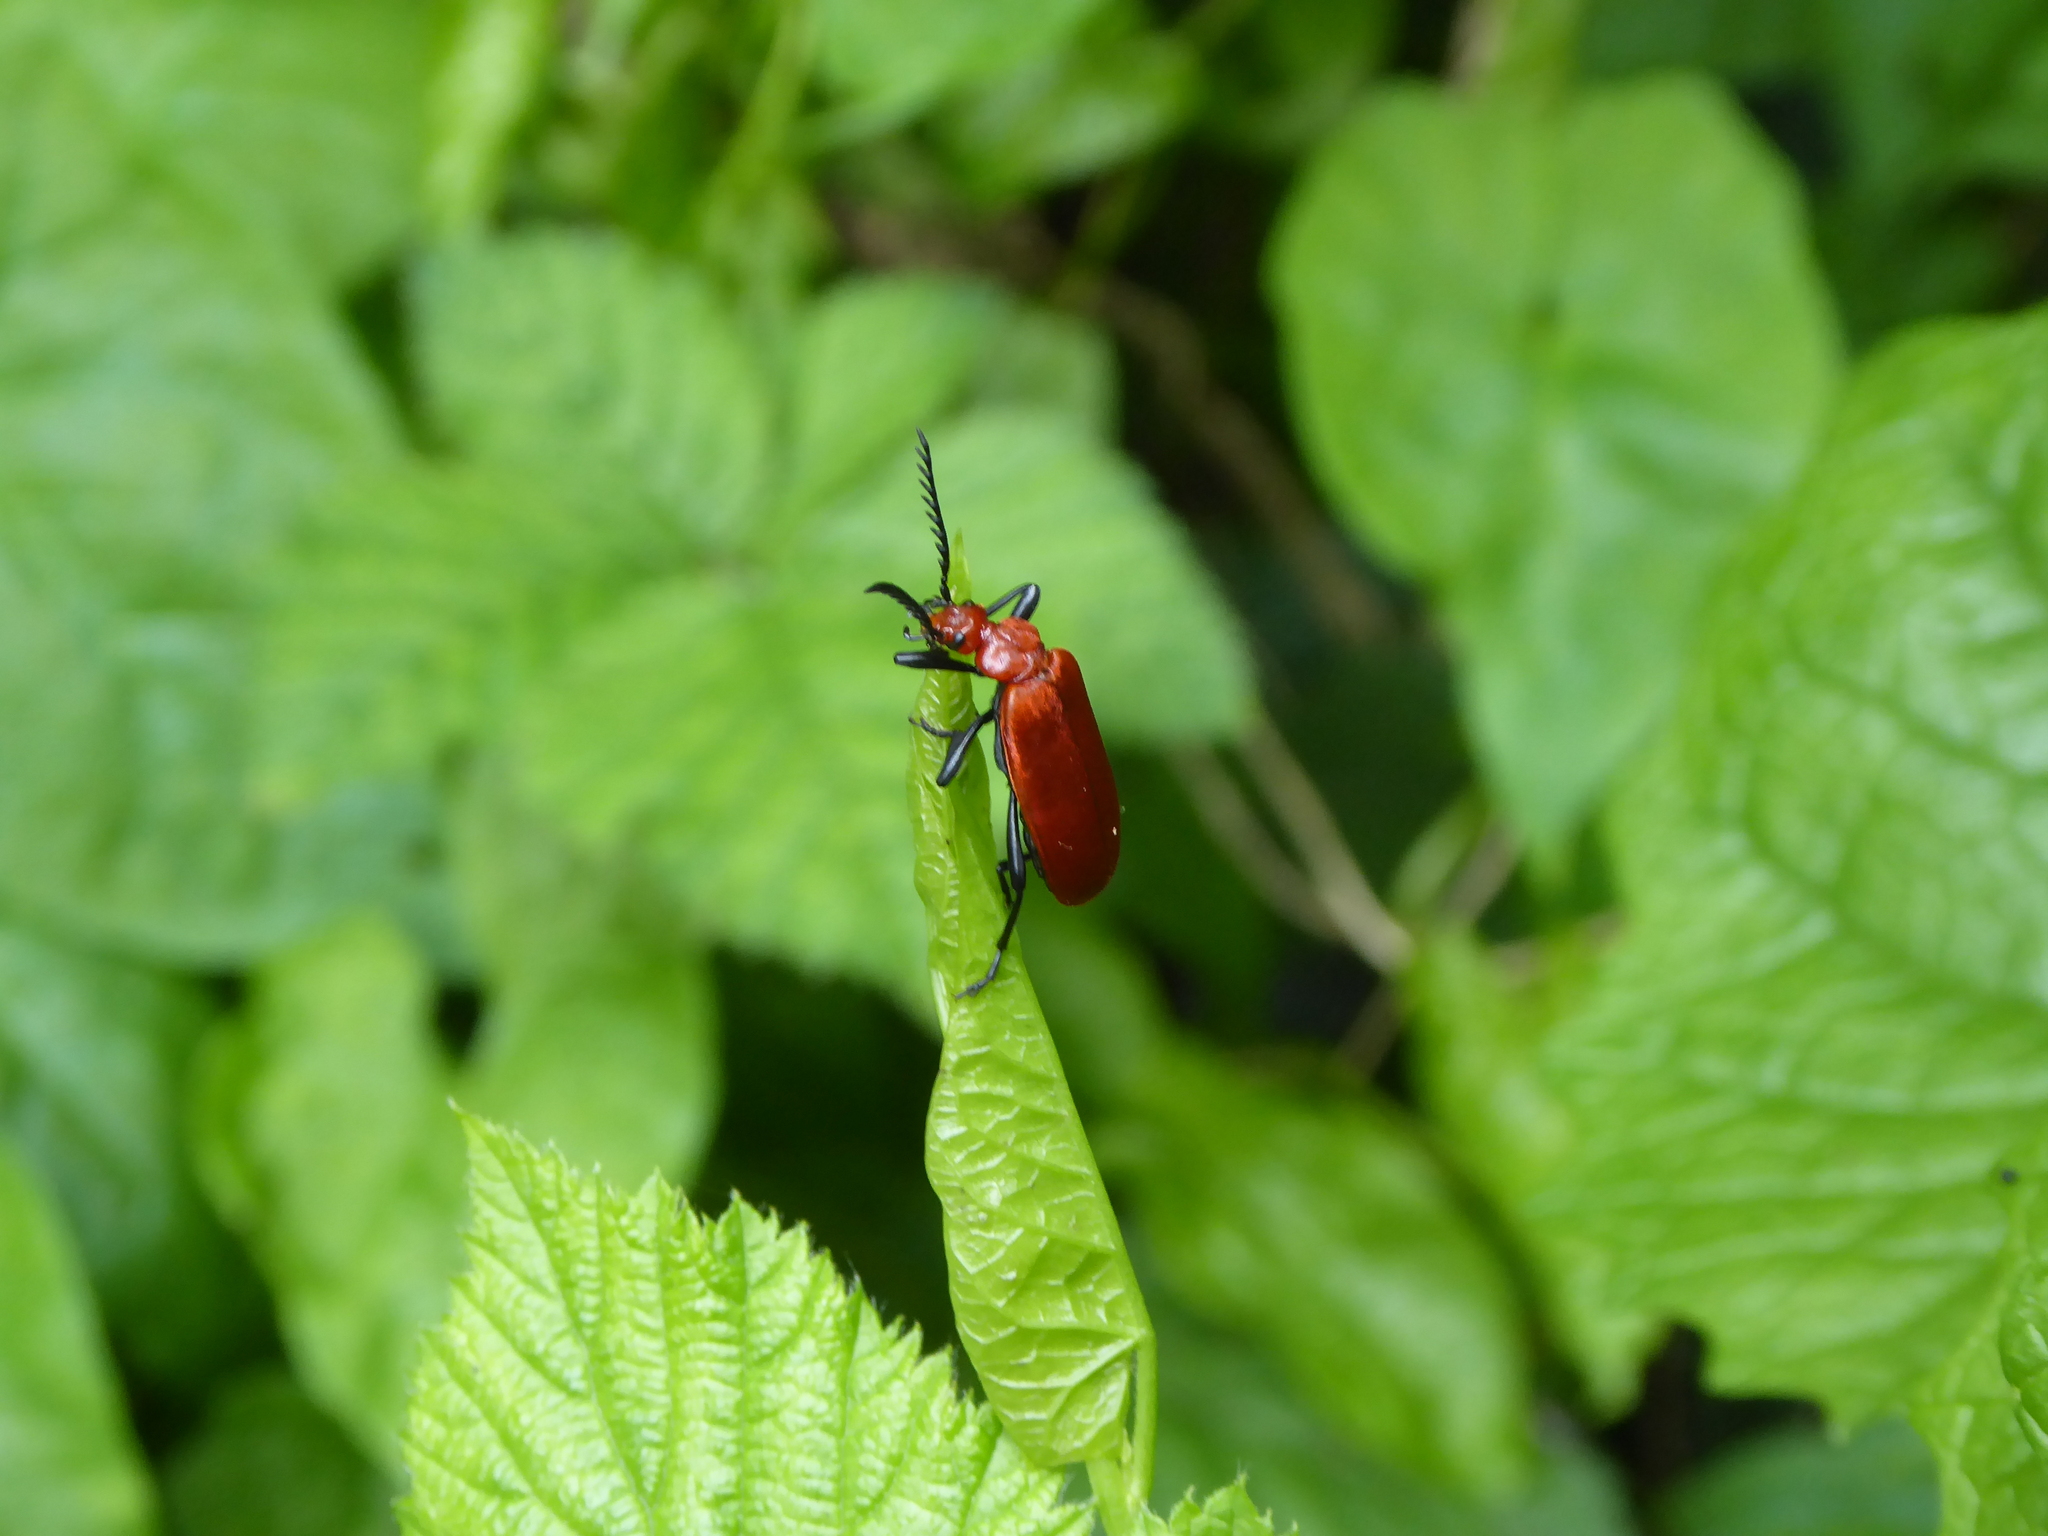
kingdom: Animalia
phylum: Arthropoda
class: Insecta
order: Coleoptera
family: Pyrochroidae
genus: Pyrochroa
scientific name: Pyrochroa serraticornis
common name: Red-headed cardinal beetle
